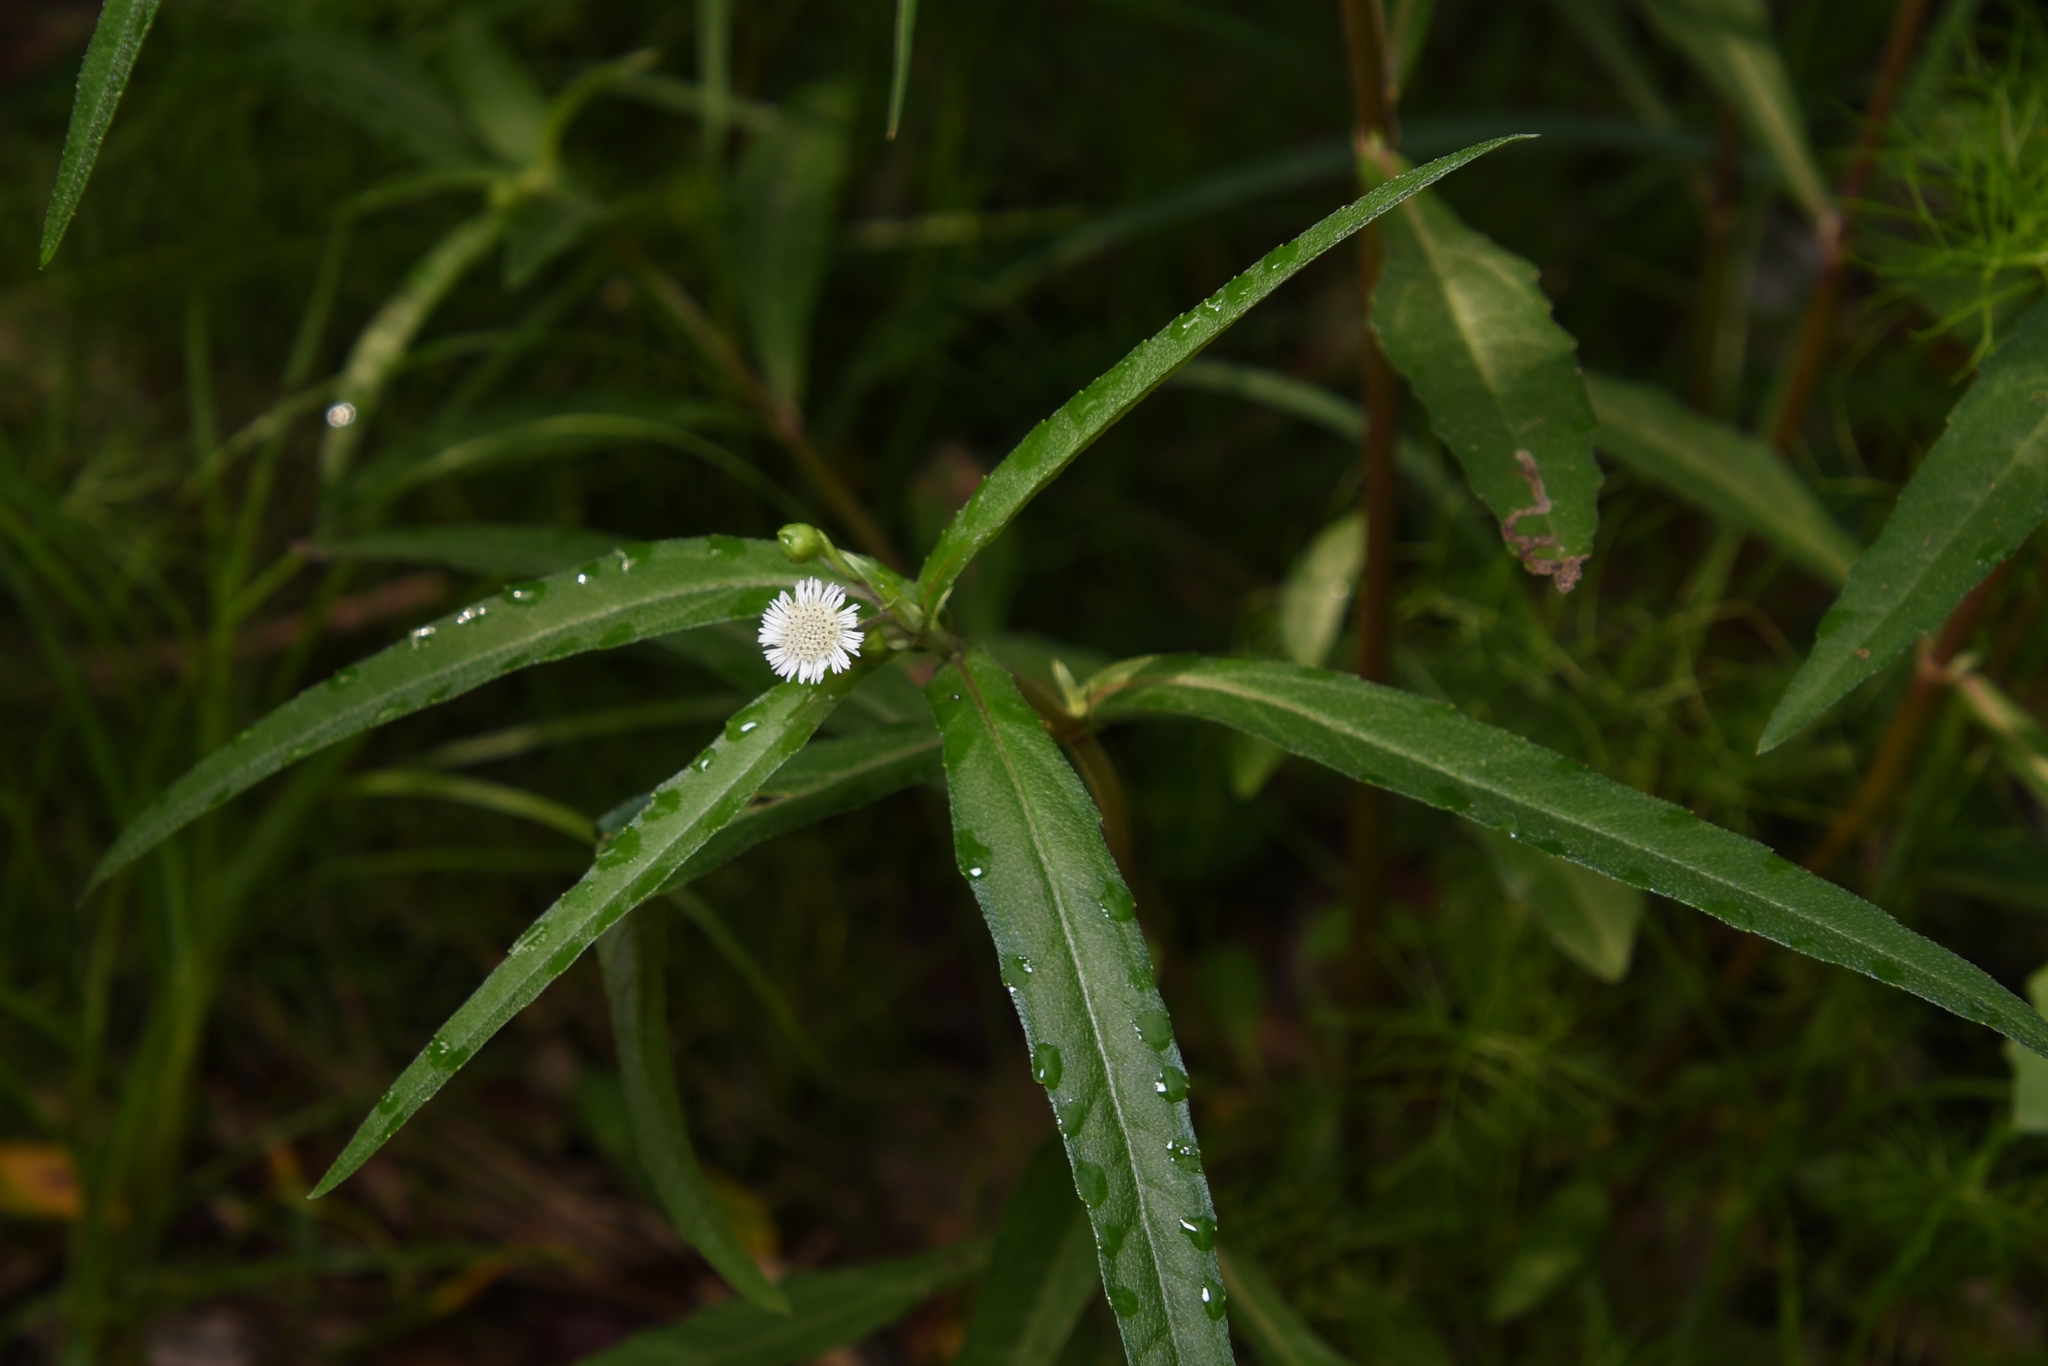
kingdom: Plantae
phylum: Tracheophyta
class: Magnoliopsida
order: Asterales
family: Asteraceae
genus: Eclipta
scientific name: Eclipta prostrata
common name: False daisy
